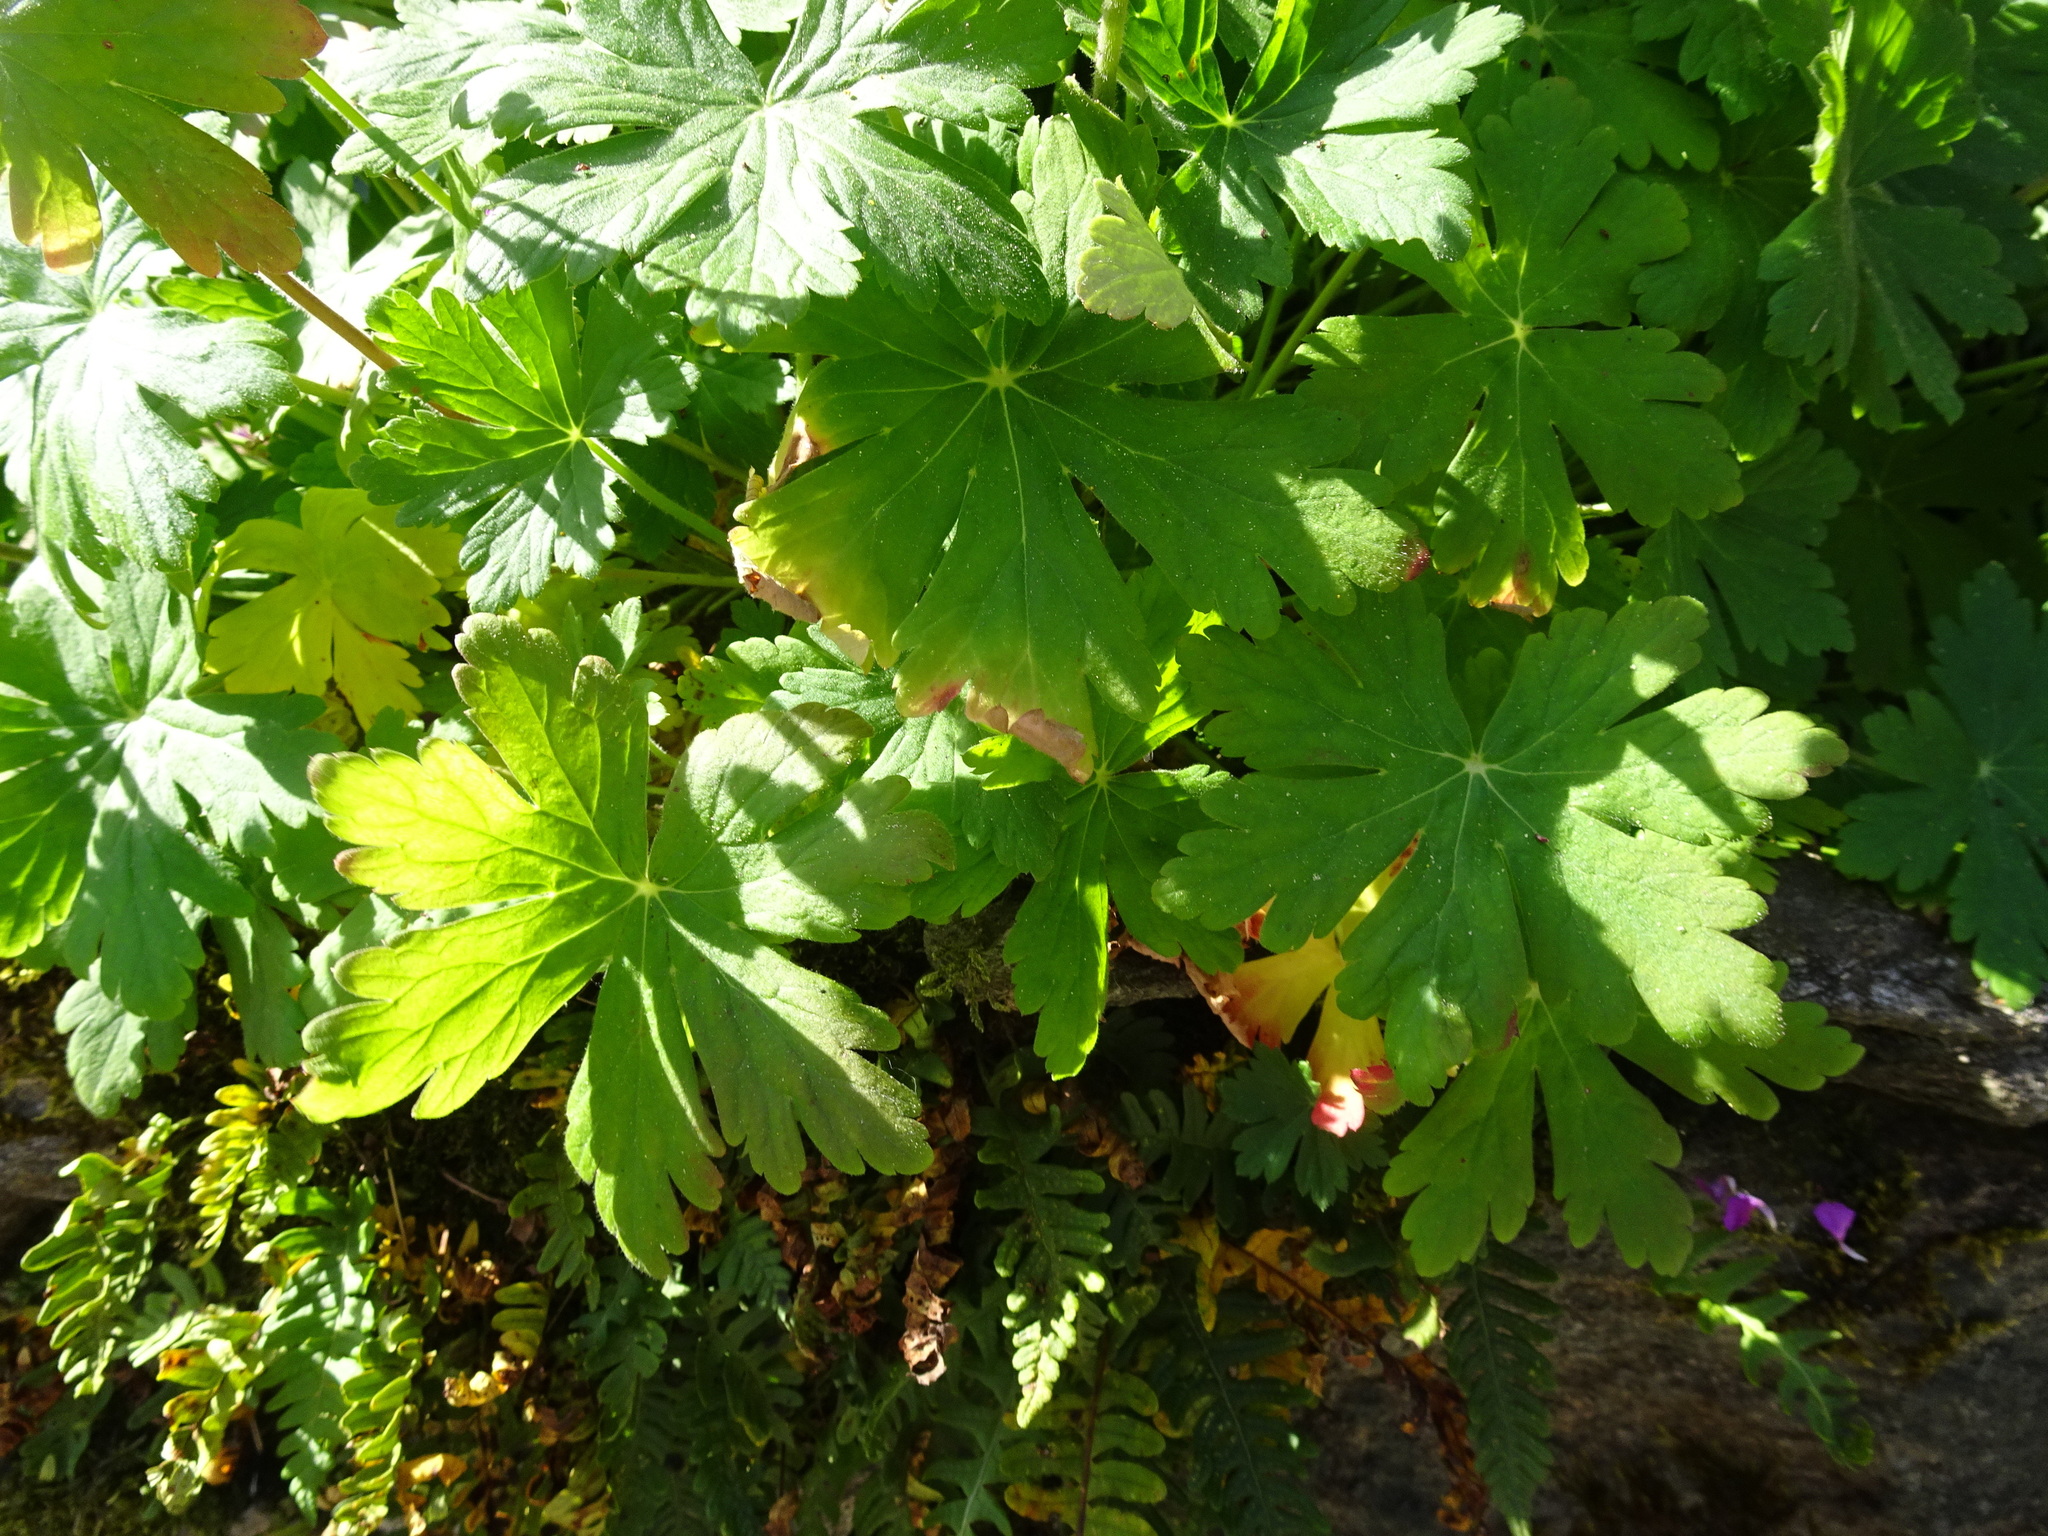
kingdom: Plantae
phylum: Tracheophyta
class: Magnoliopsida
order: Geraniales
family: Geraniaceae
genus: Geranium
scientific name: Geranium macrorrhizum
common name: Rock crane's-bill
